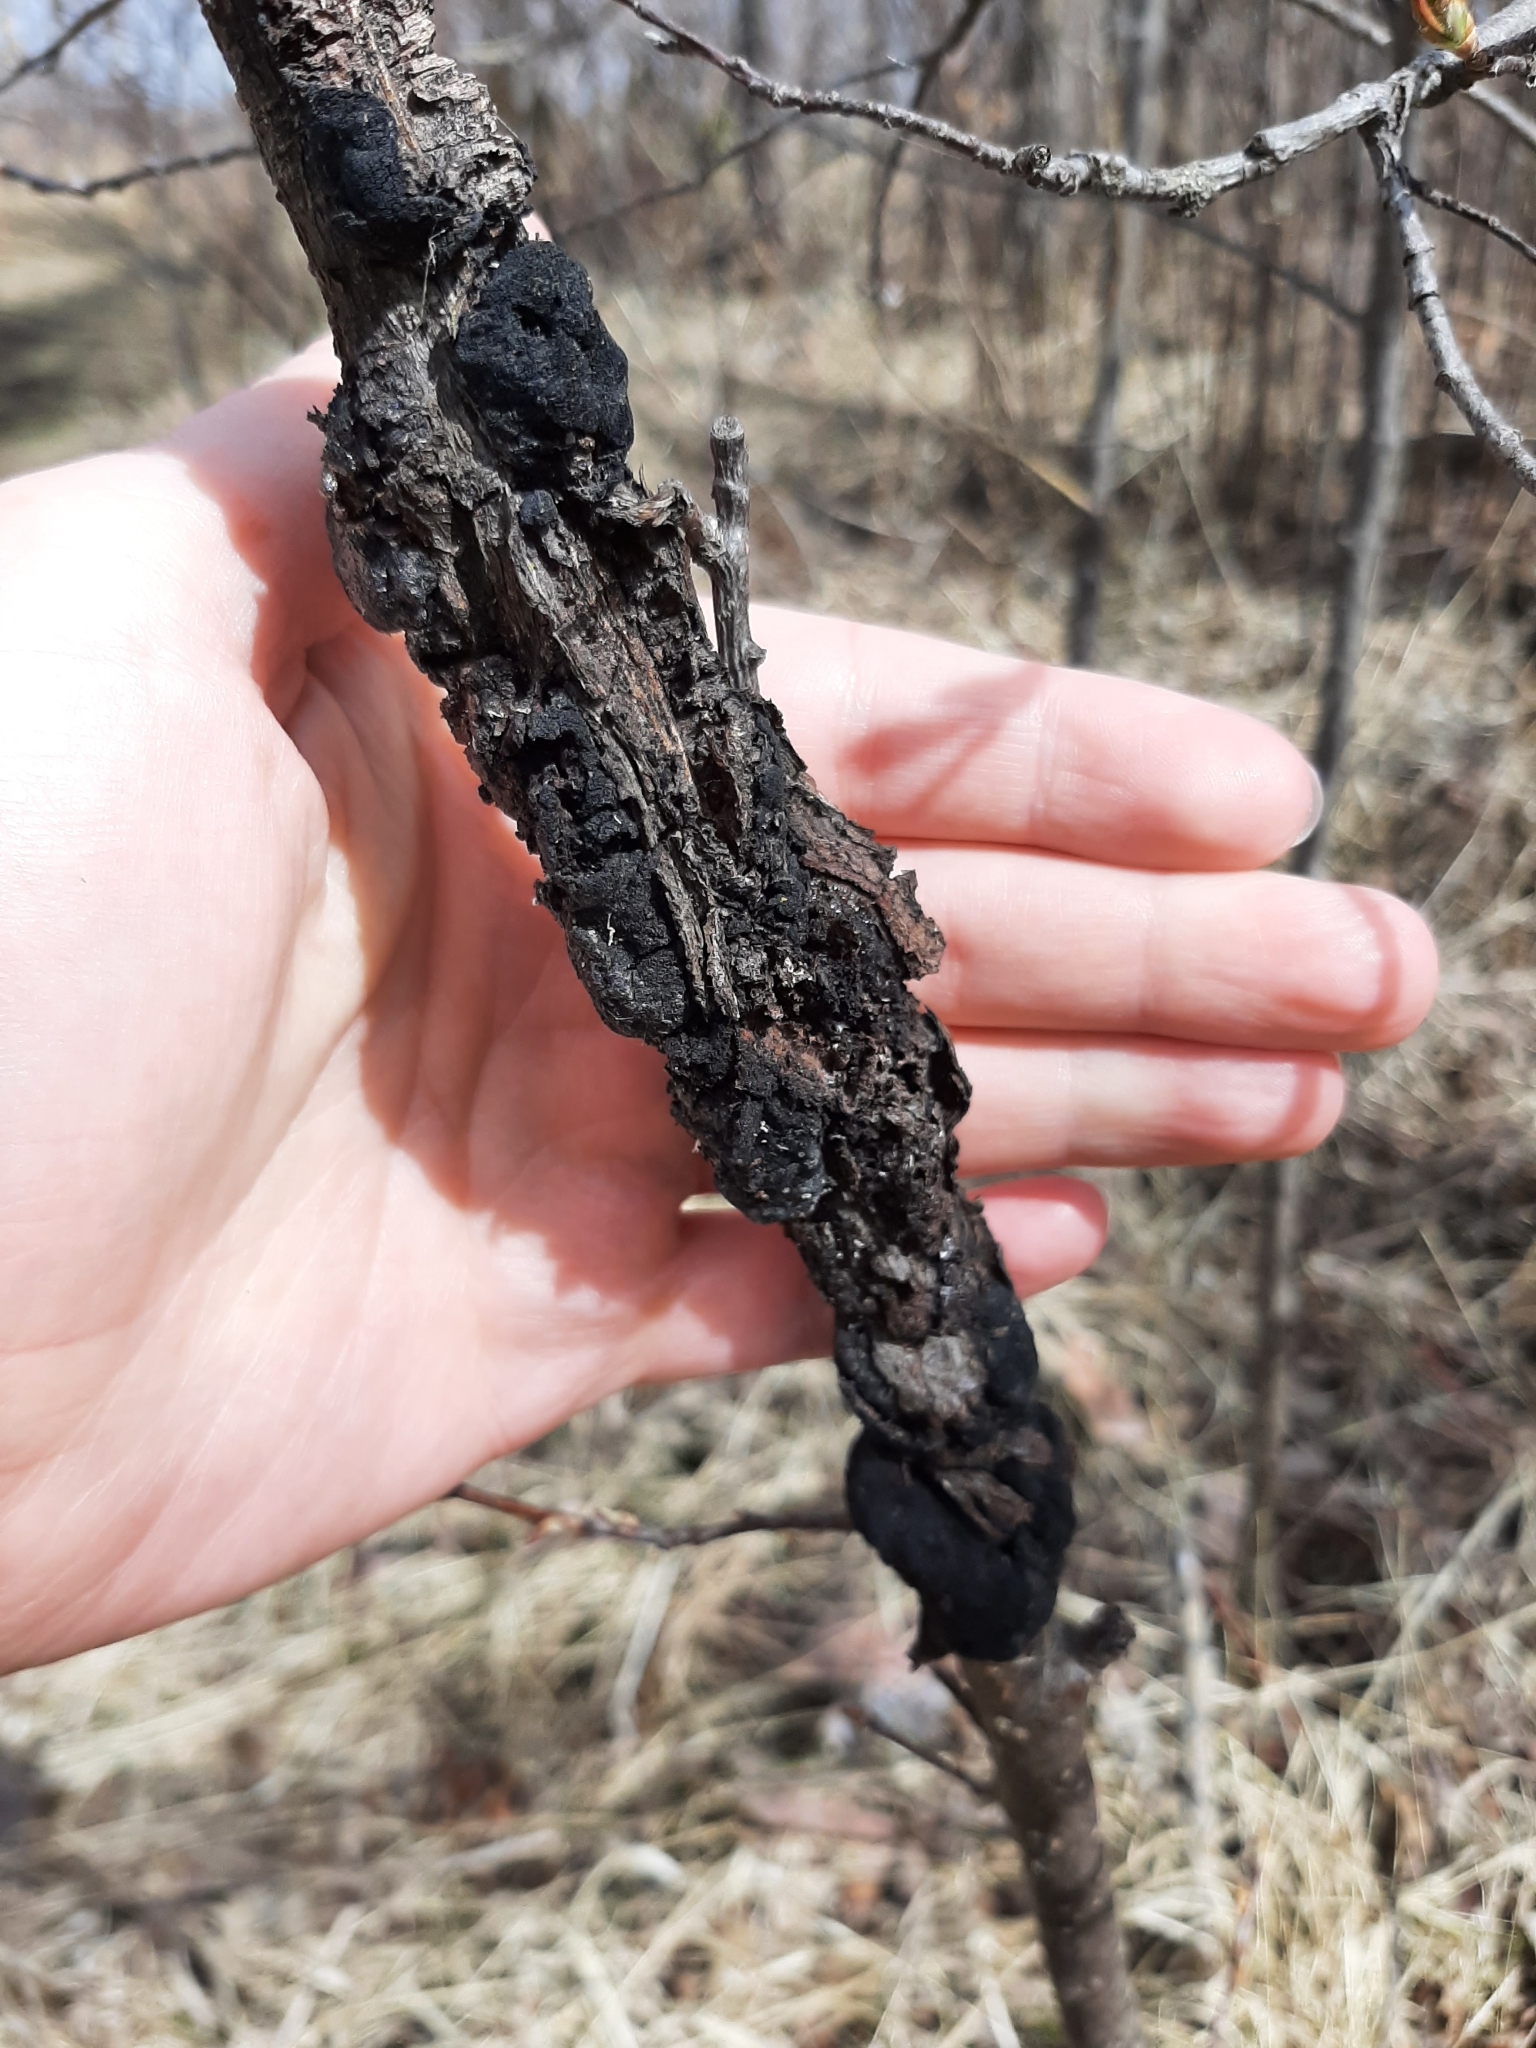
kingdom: Fungi
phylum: Ascomycota
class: Dothideomycetes
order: Venturiales
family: Venturiaceae
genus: Apiosporina
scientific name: Apiosporina morbosa
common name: Black knot
